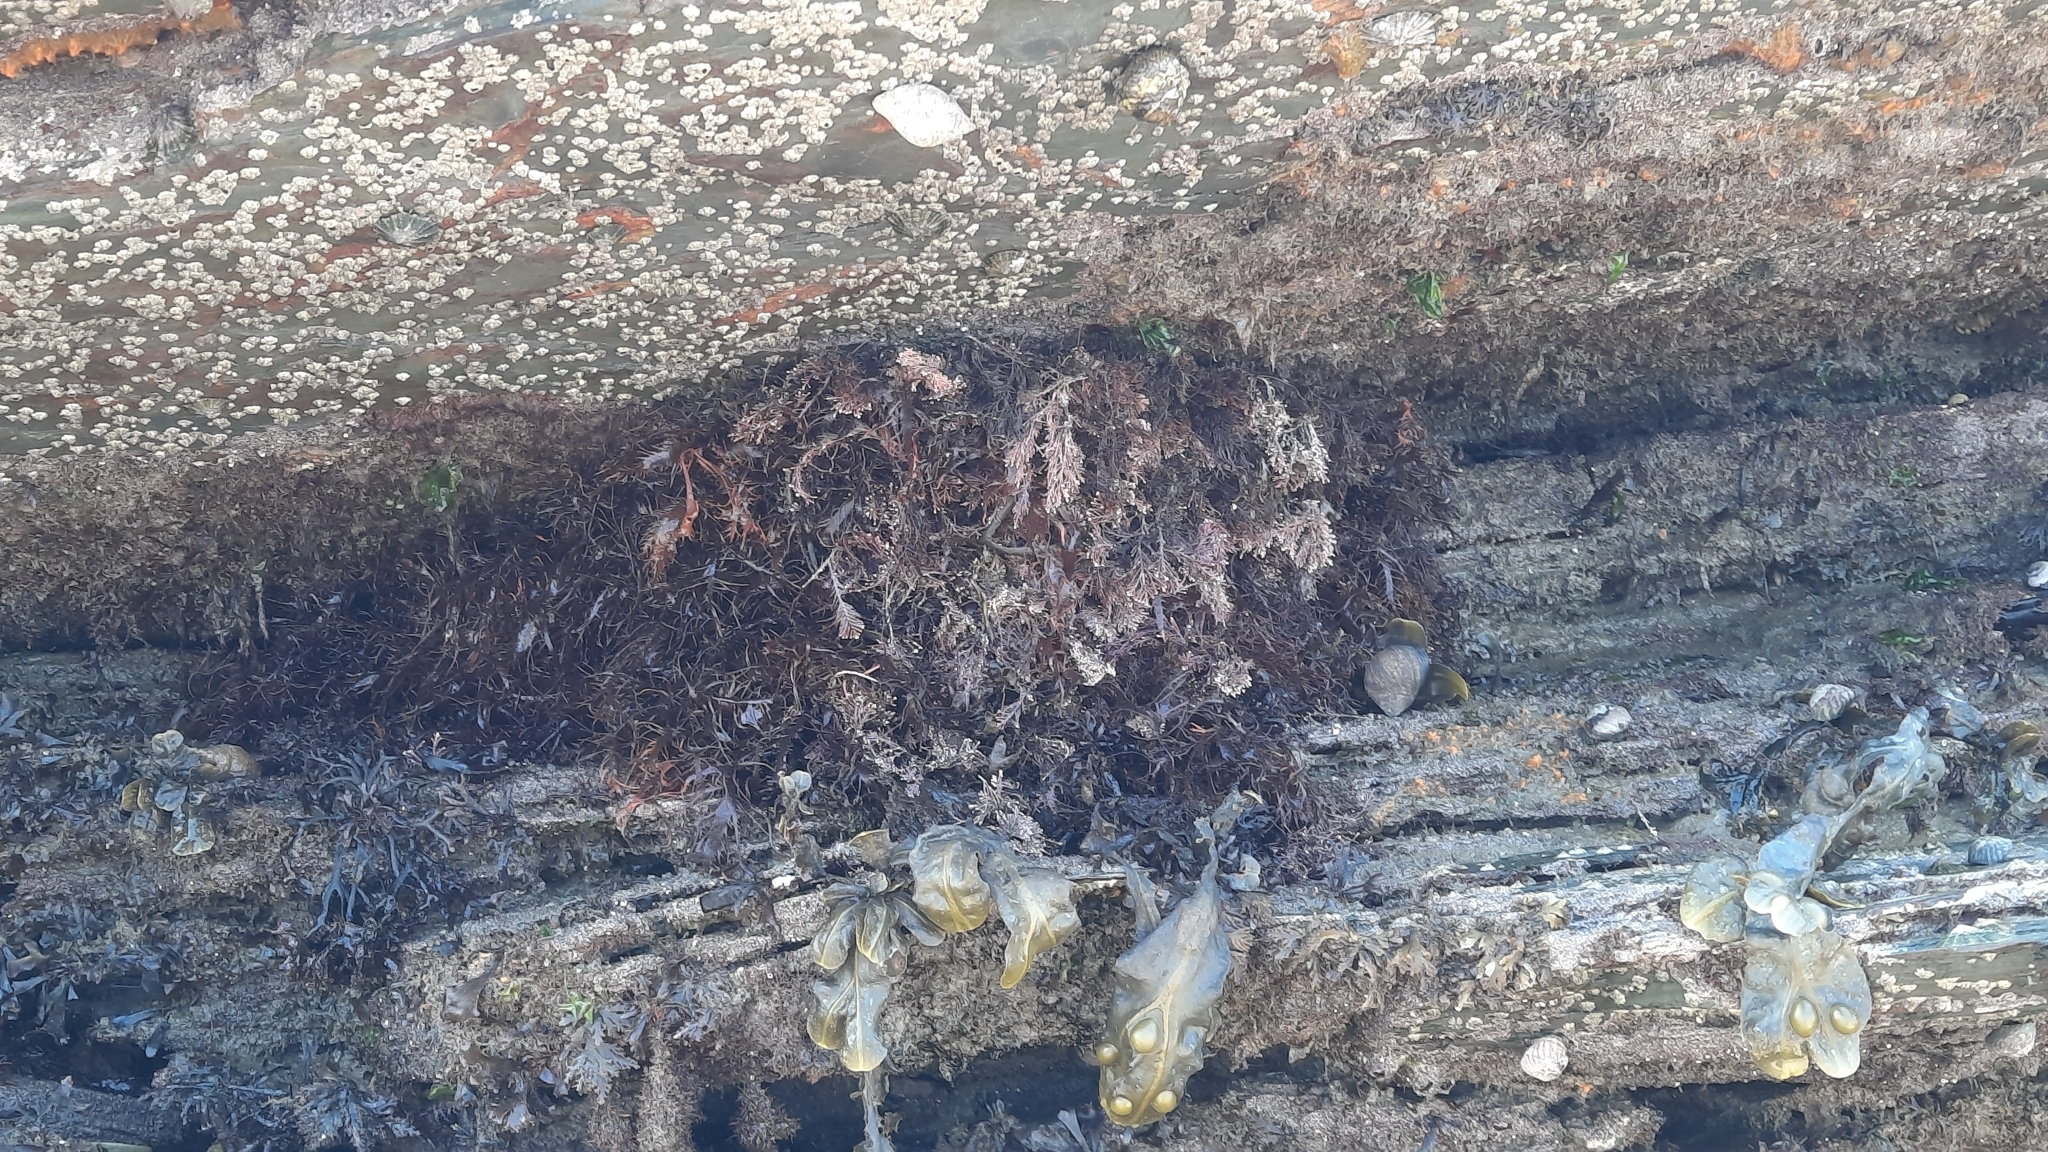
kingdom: Animalia
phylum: Chordata
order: Perciformes
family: Labridae
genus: Symphodus
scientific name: Symphodus melops
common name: Corkwing
